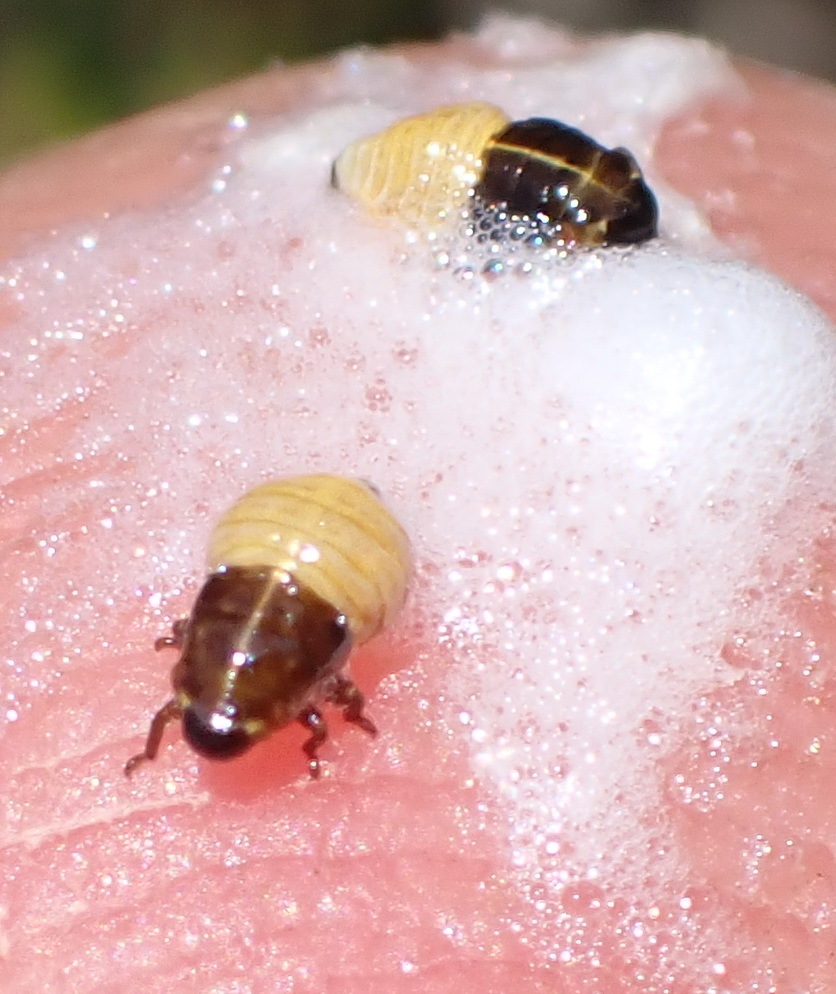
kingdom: Animalia
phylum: Arthropoda
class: Insecta
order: Hemiptera
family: Aphrophoridae
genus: Tremapterus
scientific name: Tremapterus
